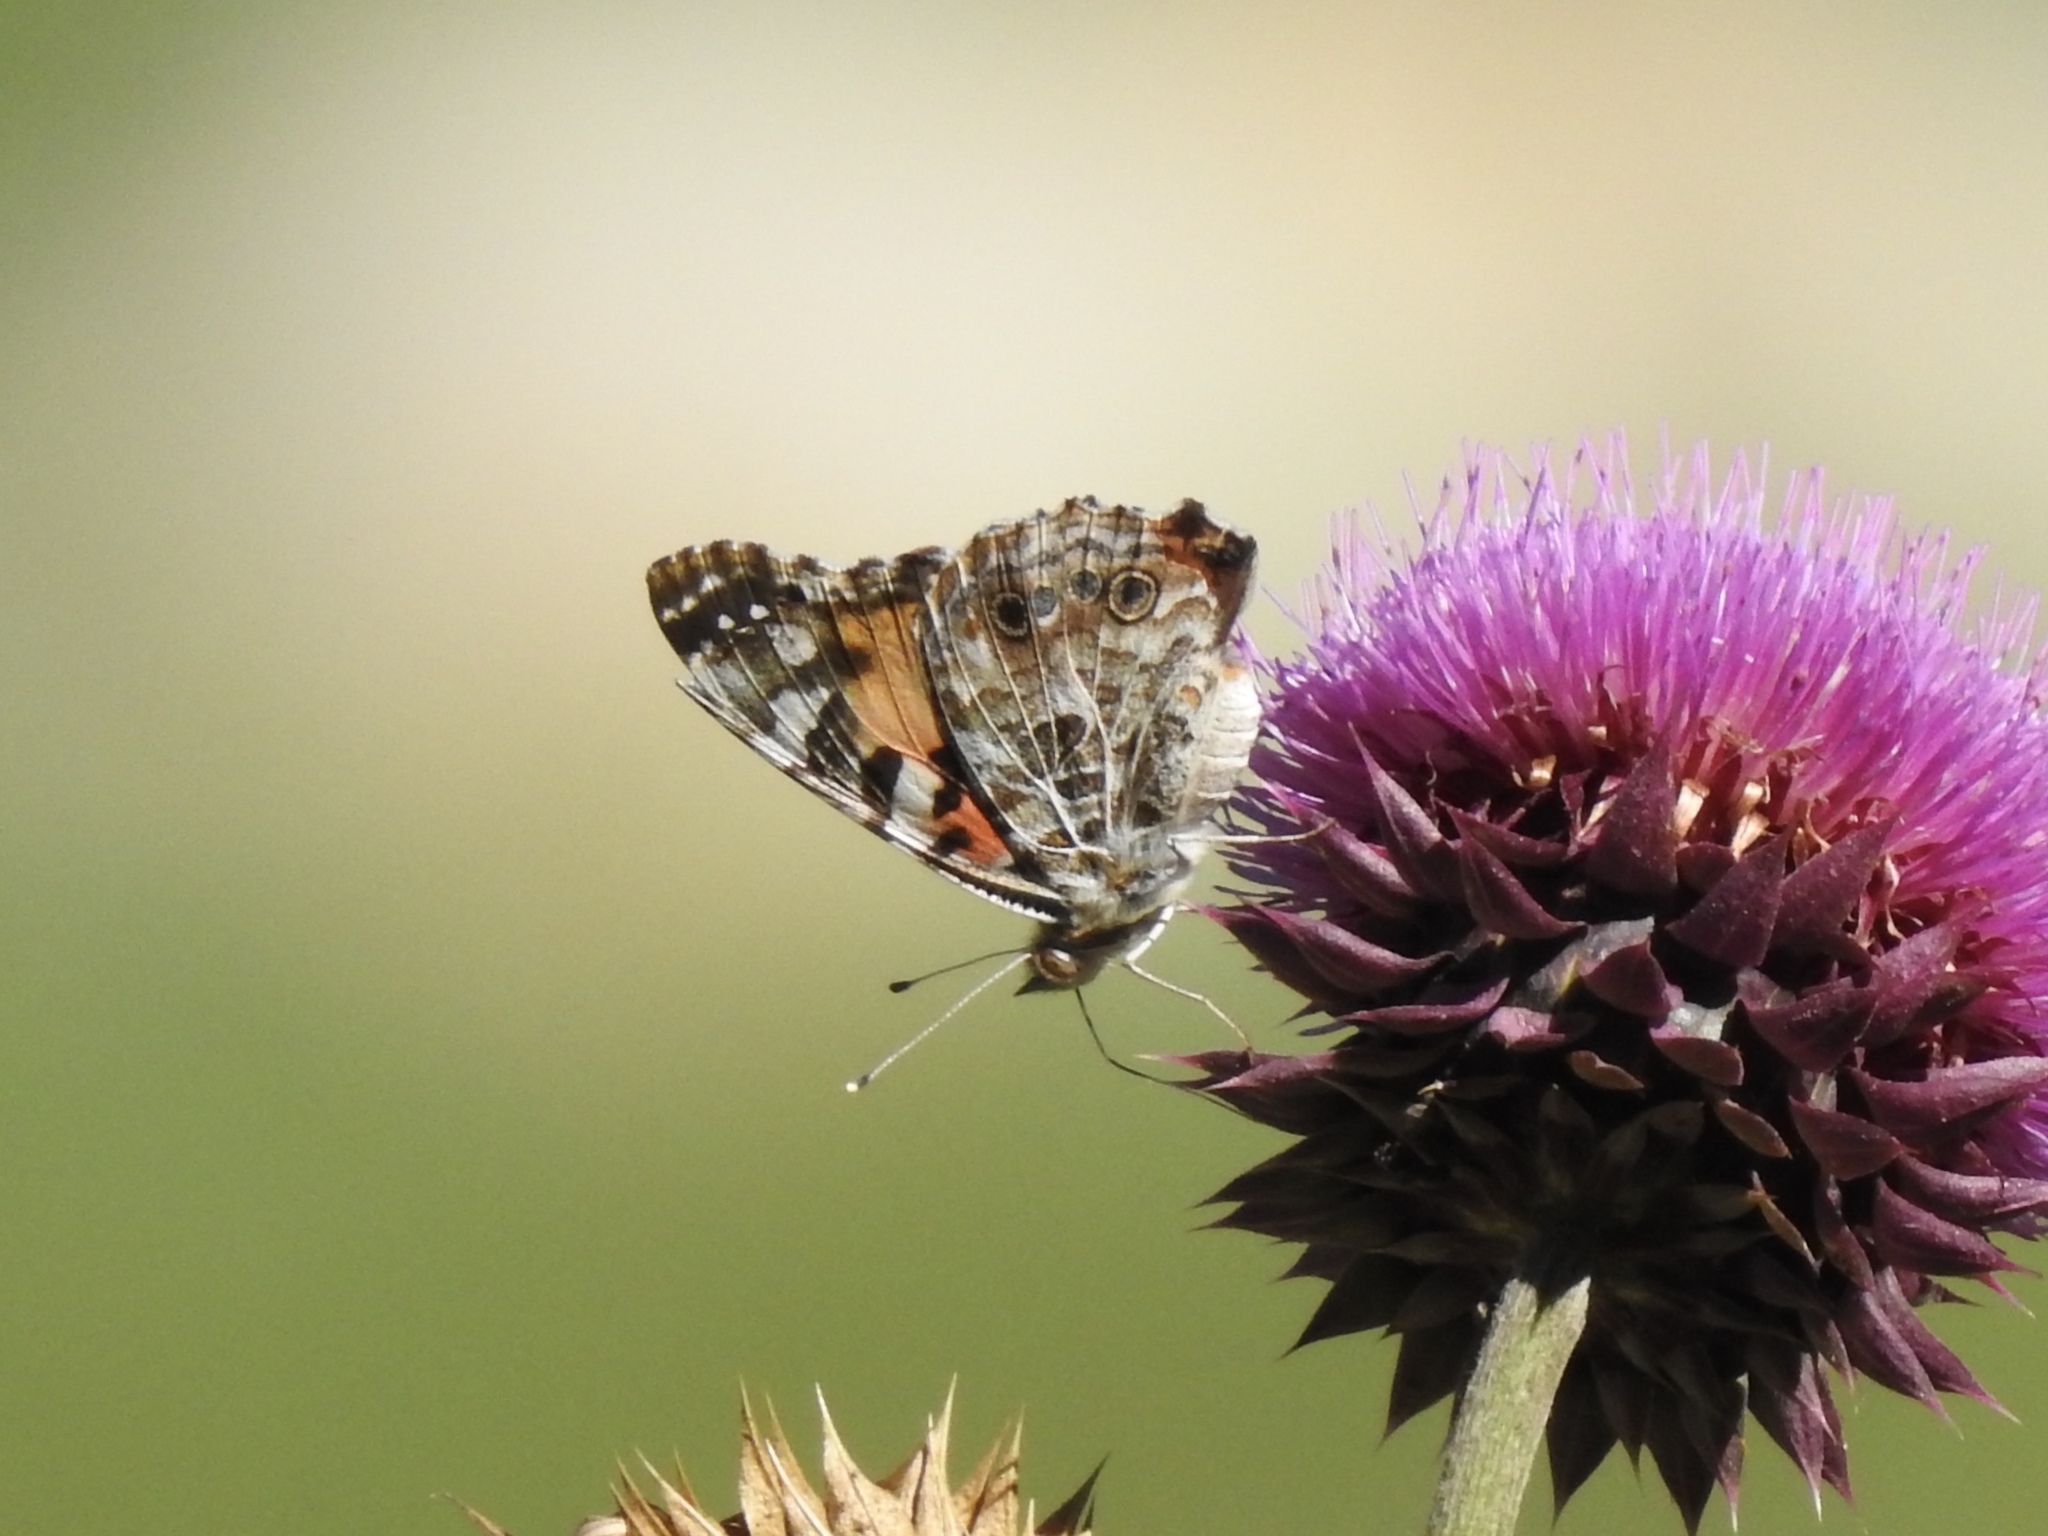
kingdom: Animalia
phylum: Arthropoda
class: Insecta
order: Lepidoptera
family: Nymphalidae
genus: Vanessa
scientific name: Vanessa cardui
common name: Painted lady
